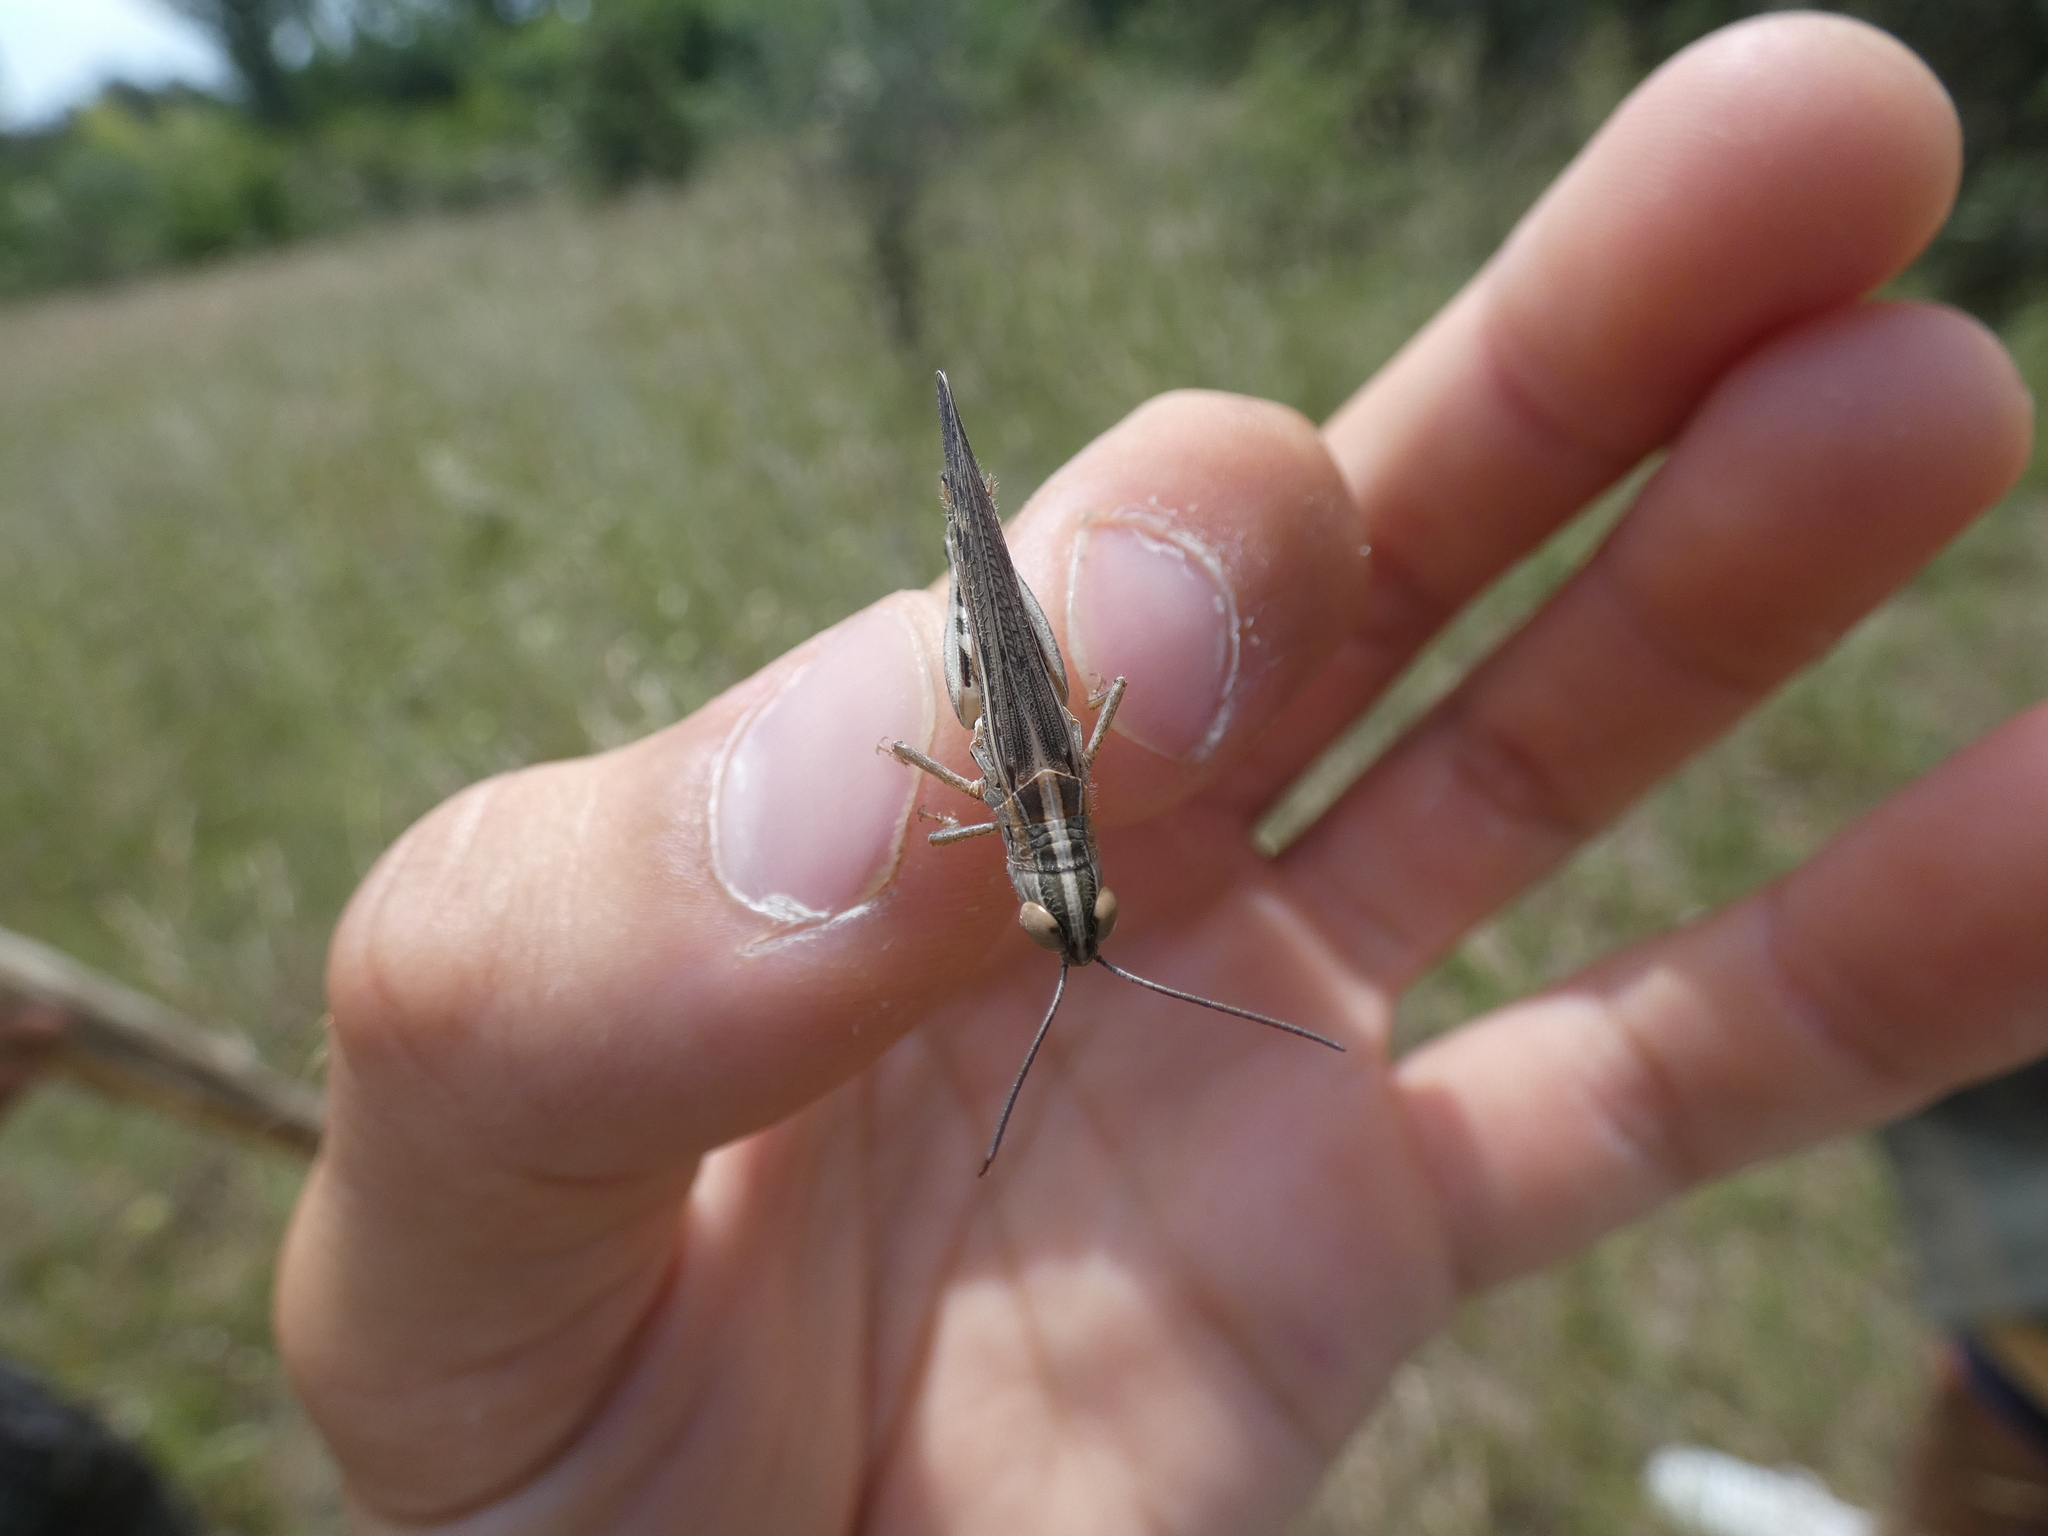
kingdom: Animalia
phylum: Arthropoda
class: Insecta
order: Orthoptera
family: Acrididae
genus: Ramburiella
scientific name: Ramburiella hispanica
